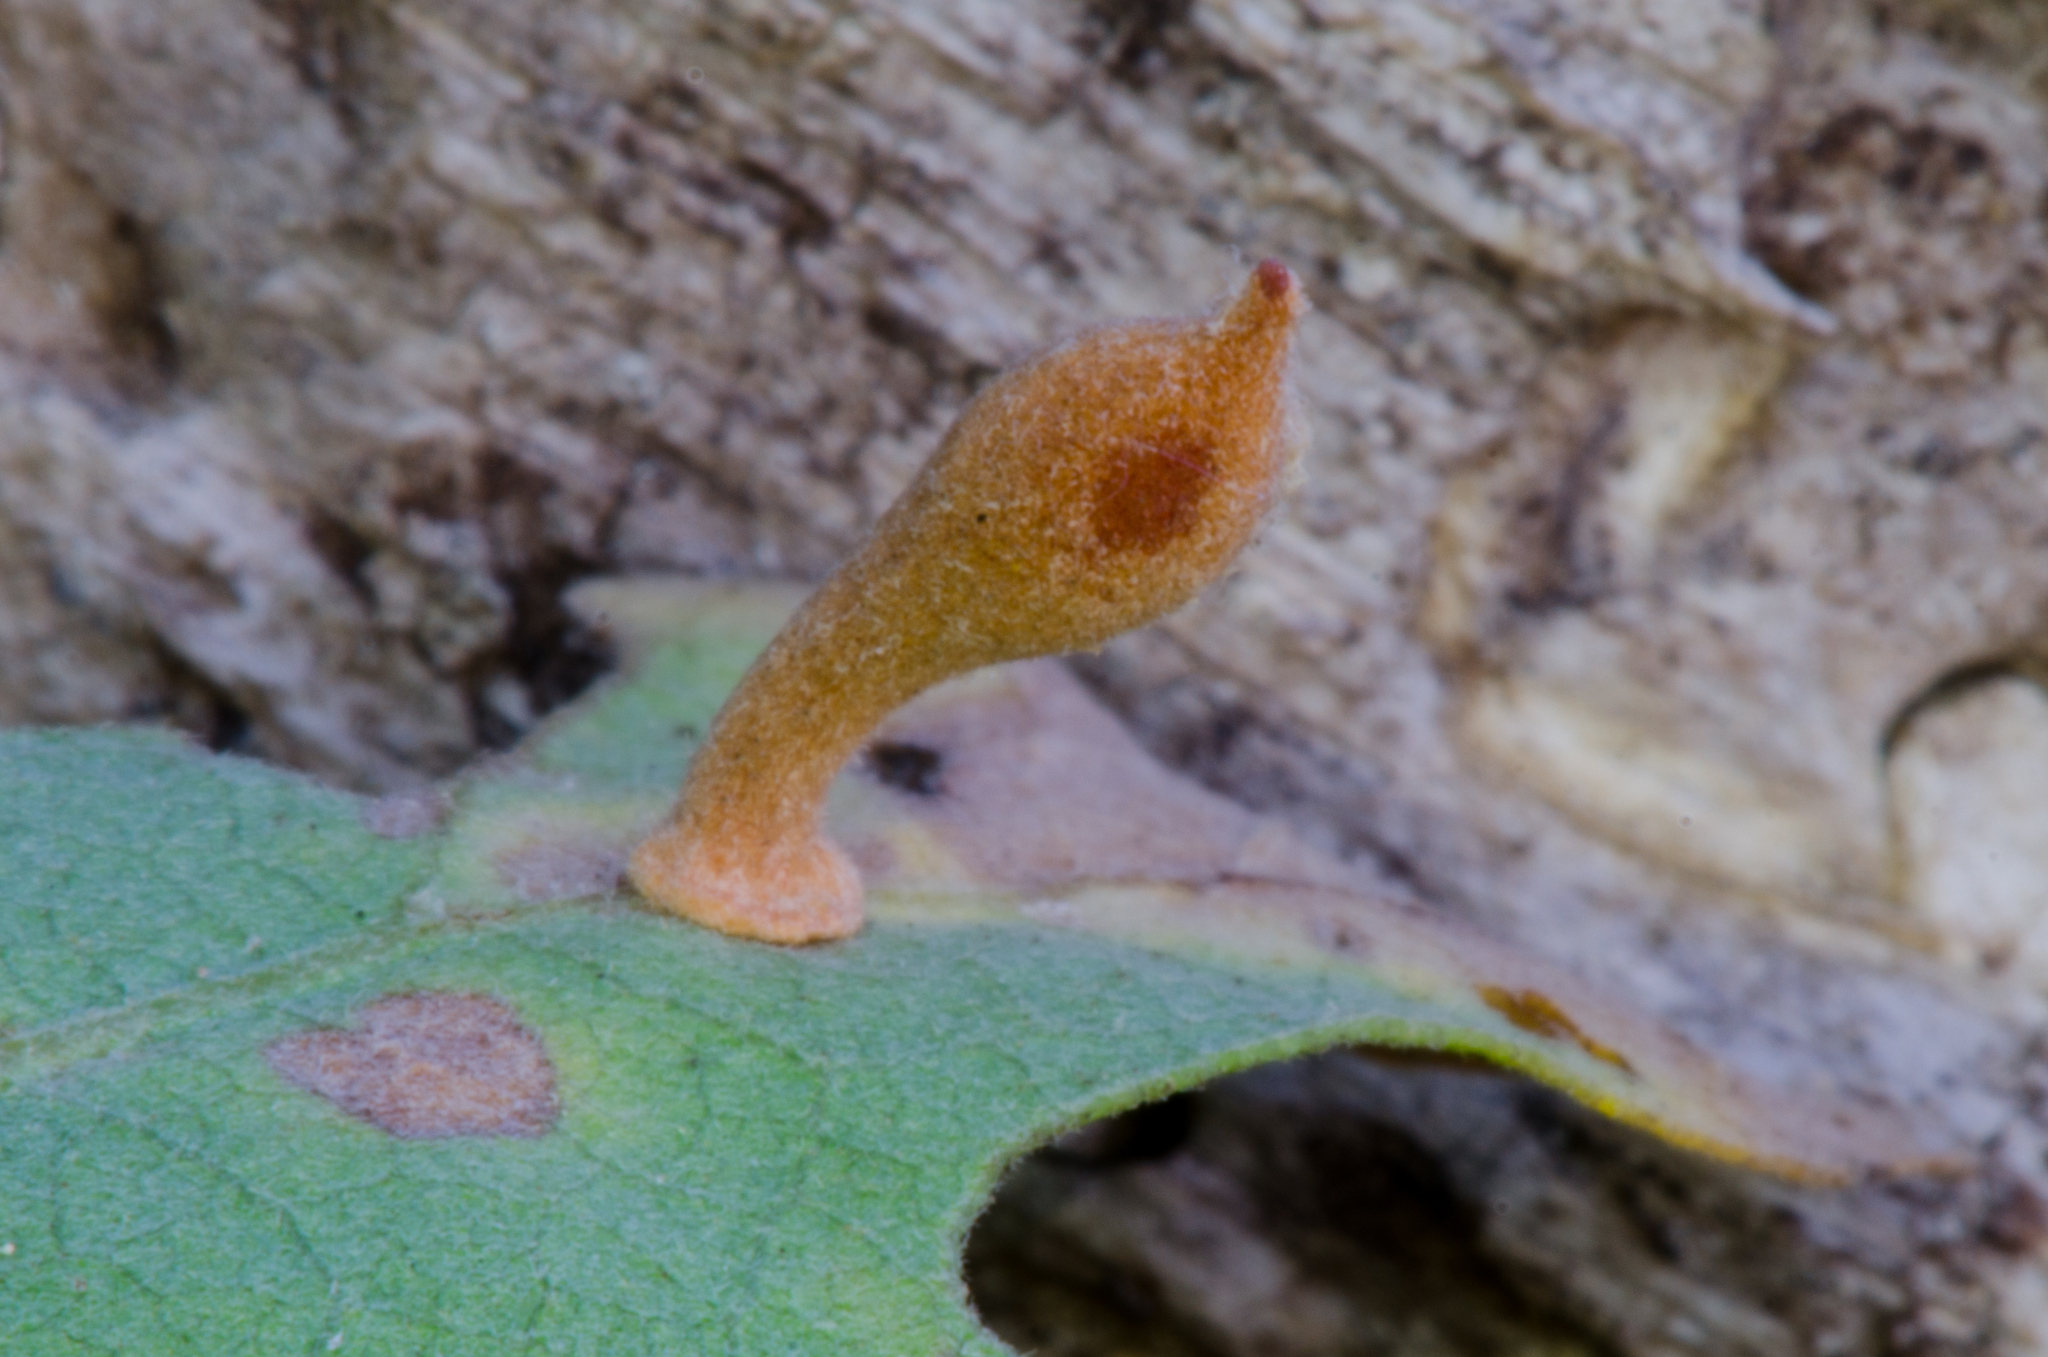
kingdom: Animalia
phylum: Arthropoda
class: Insecta
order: Hymenoptera
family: Cynipidae
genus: Atrusca
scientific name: Atrusca
